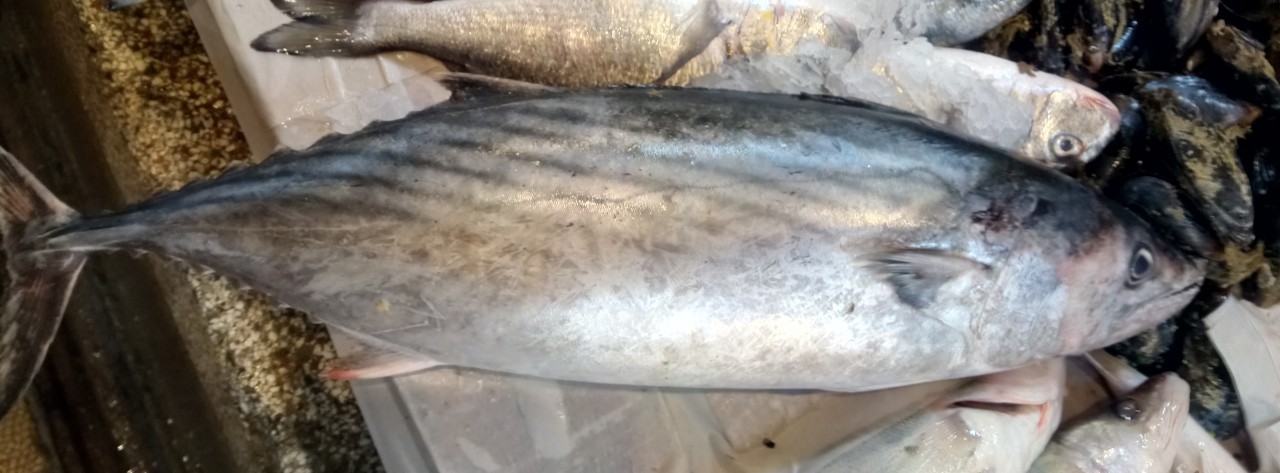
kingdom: Animalia
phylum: Chordata
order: Perciformes
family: Scombridae
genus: Sarda
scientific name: Sarda sarda
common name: Atlantic bonito
